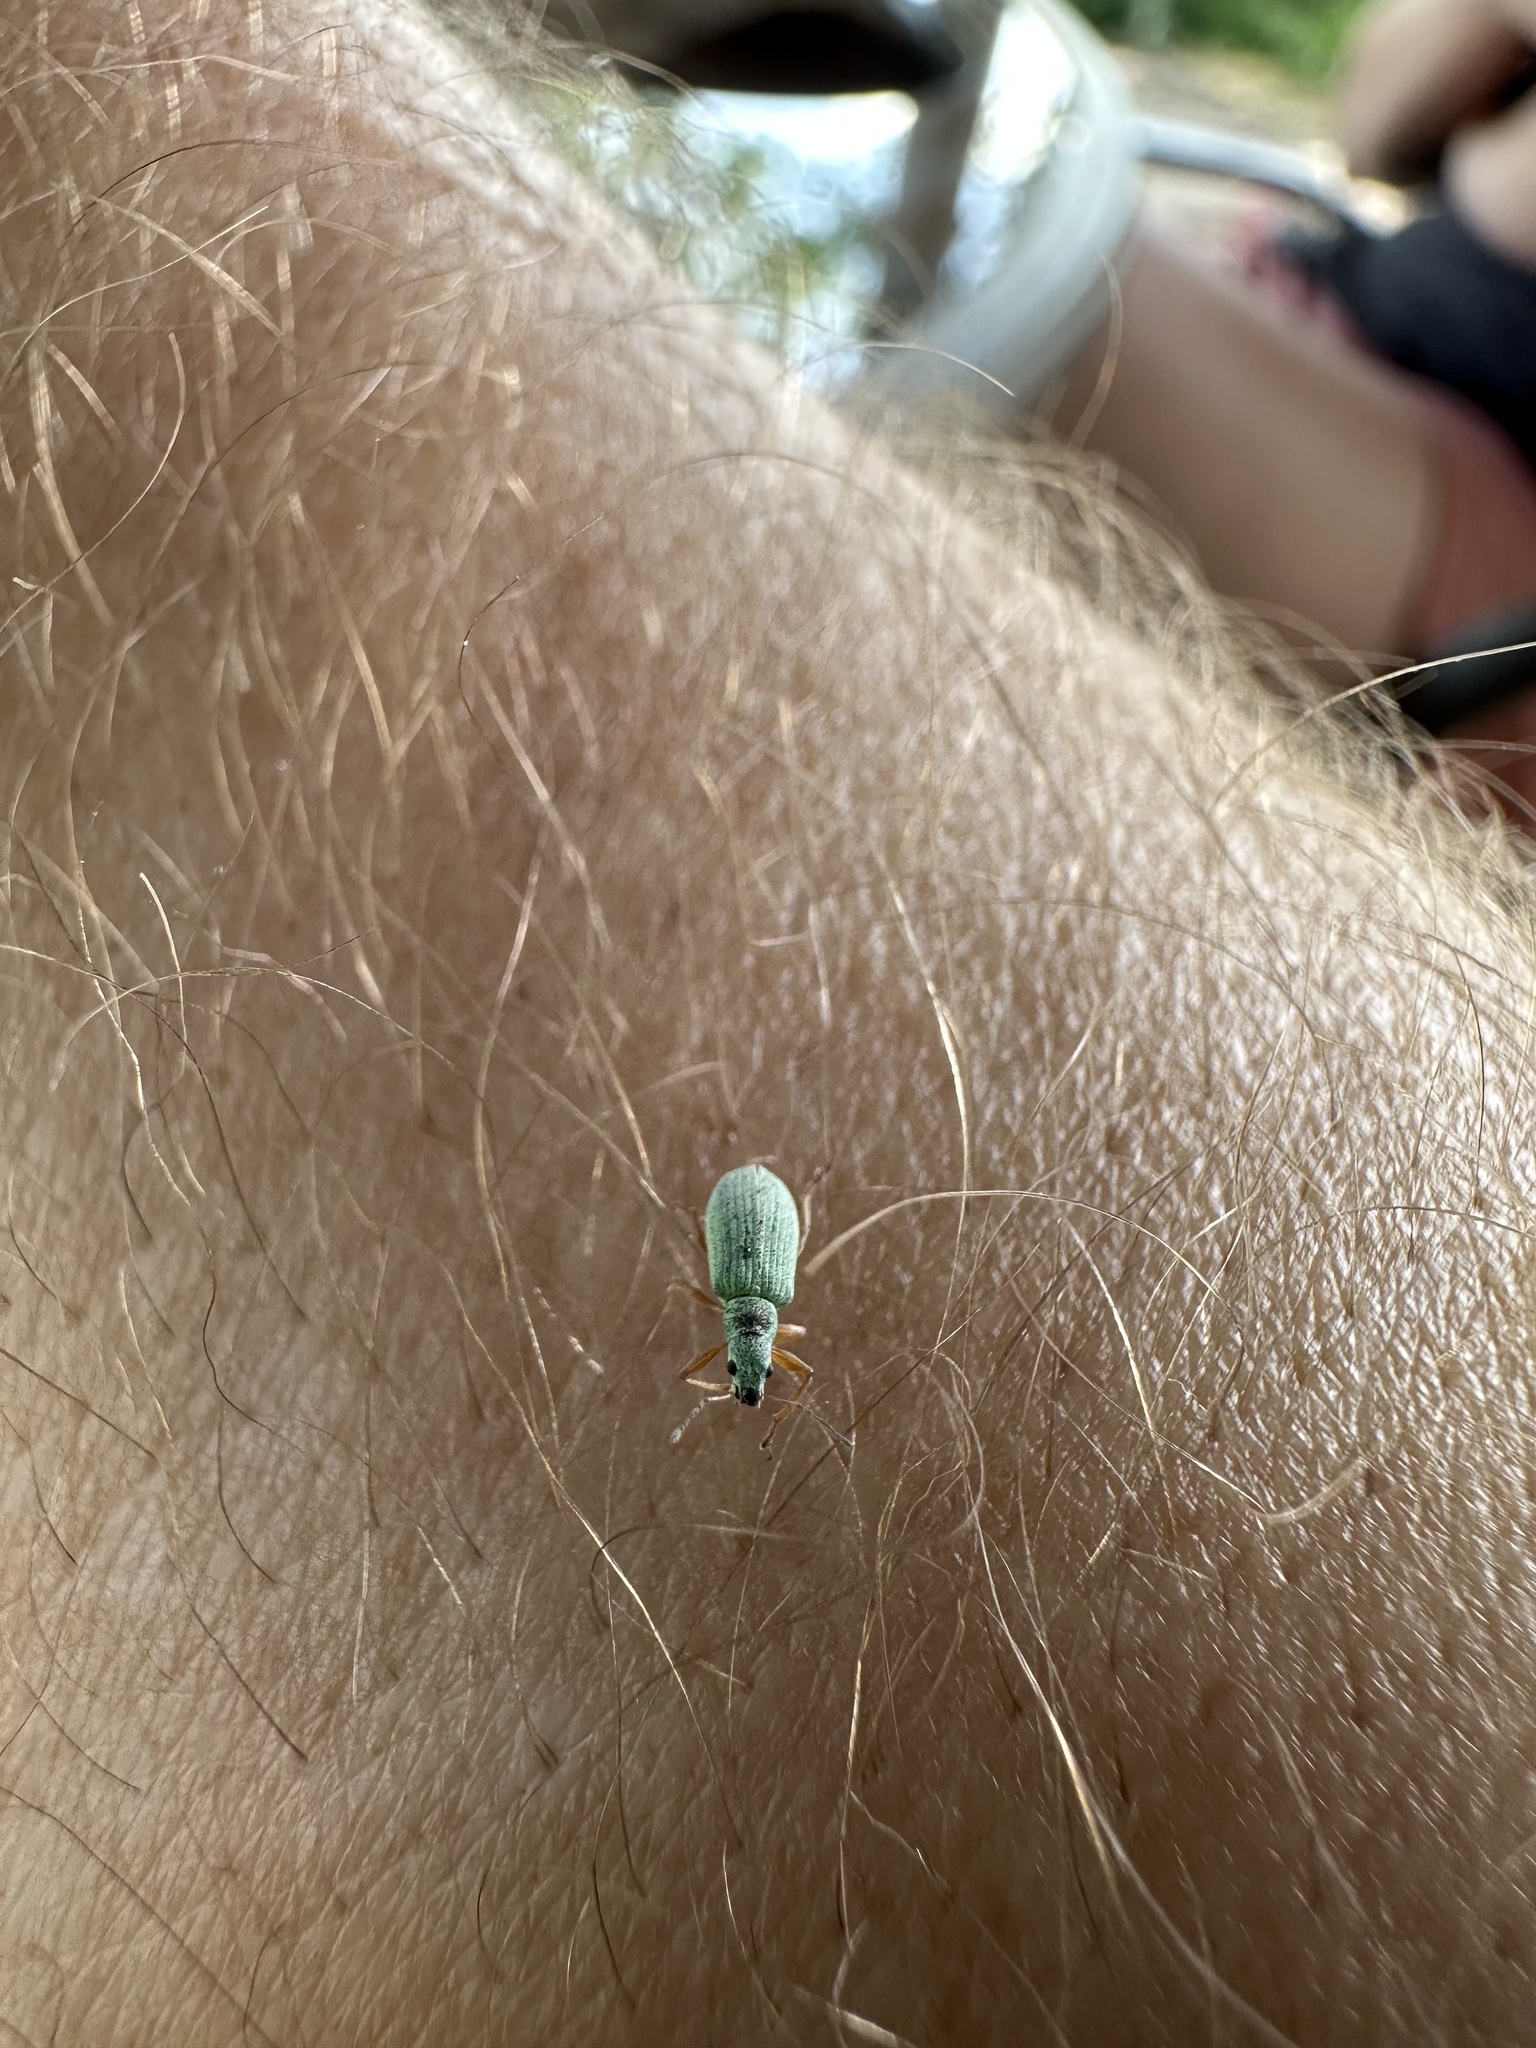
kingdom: Animalia
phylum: Arthropoda
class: Insecta
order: Coleoptera
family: Curculionidae
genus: Polydrusus
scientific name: Polydrusus impressifrons
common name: Weevil
